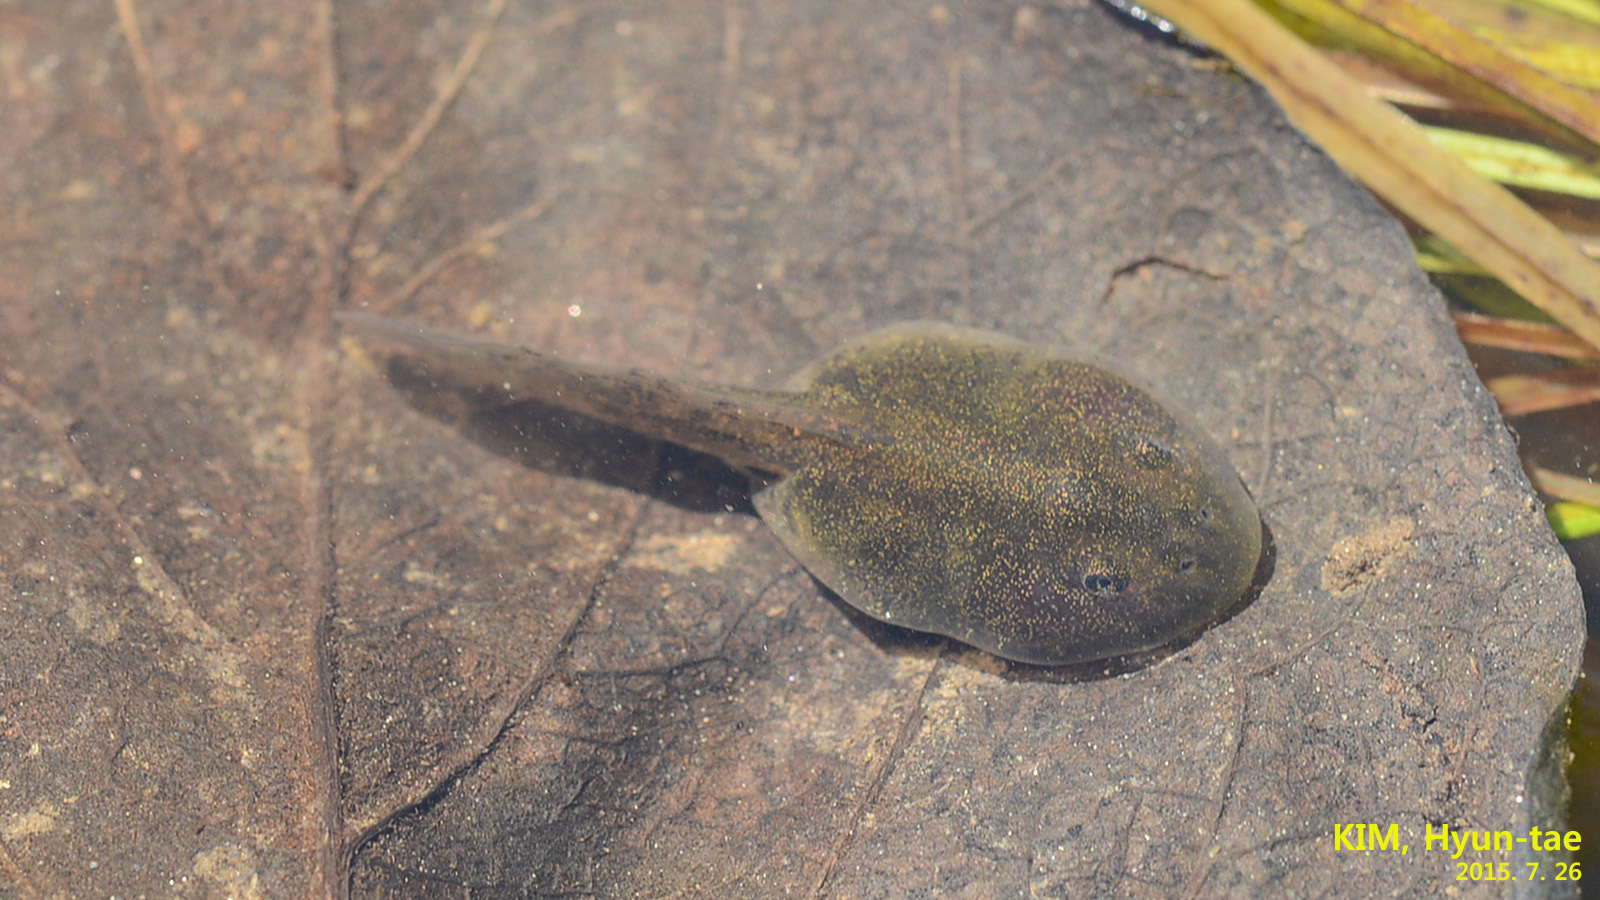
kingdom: Animalia
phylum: Chordata
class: Amphibia
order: Anura
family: Bombinatoridae
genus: Bombina
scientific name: Bombina orientalis
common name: Oriental firebelly toad
